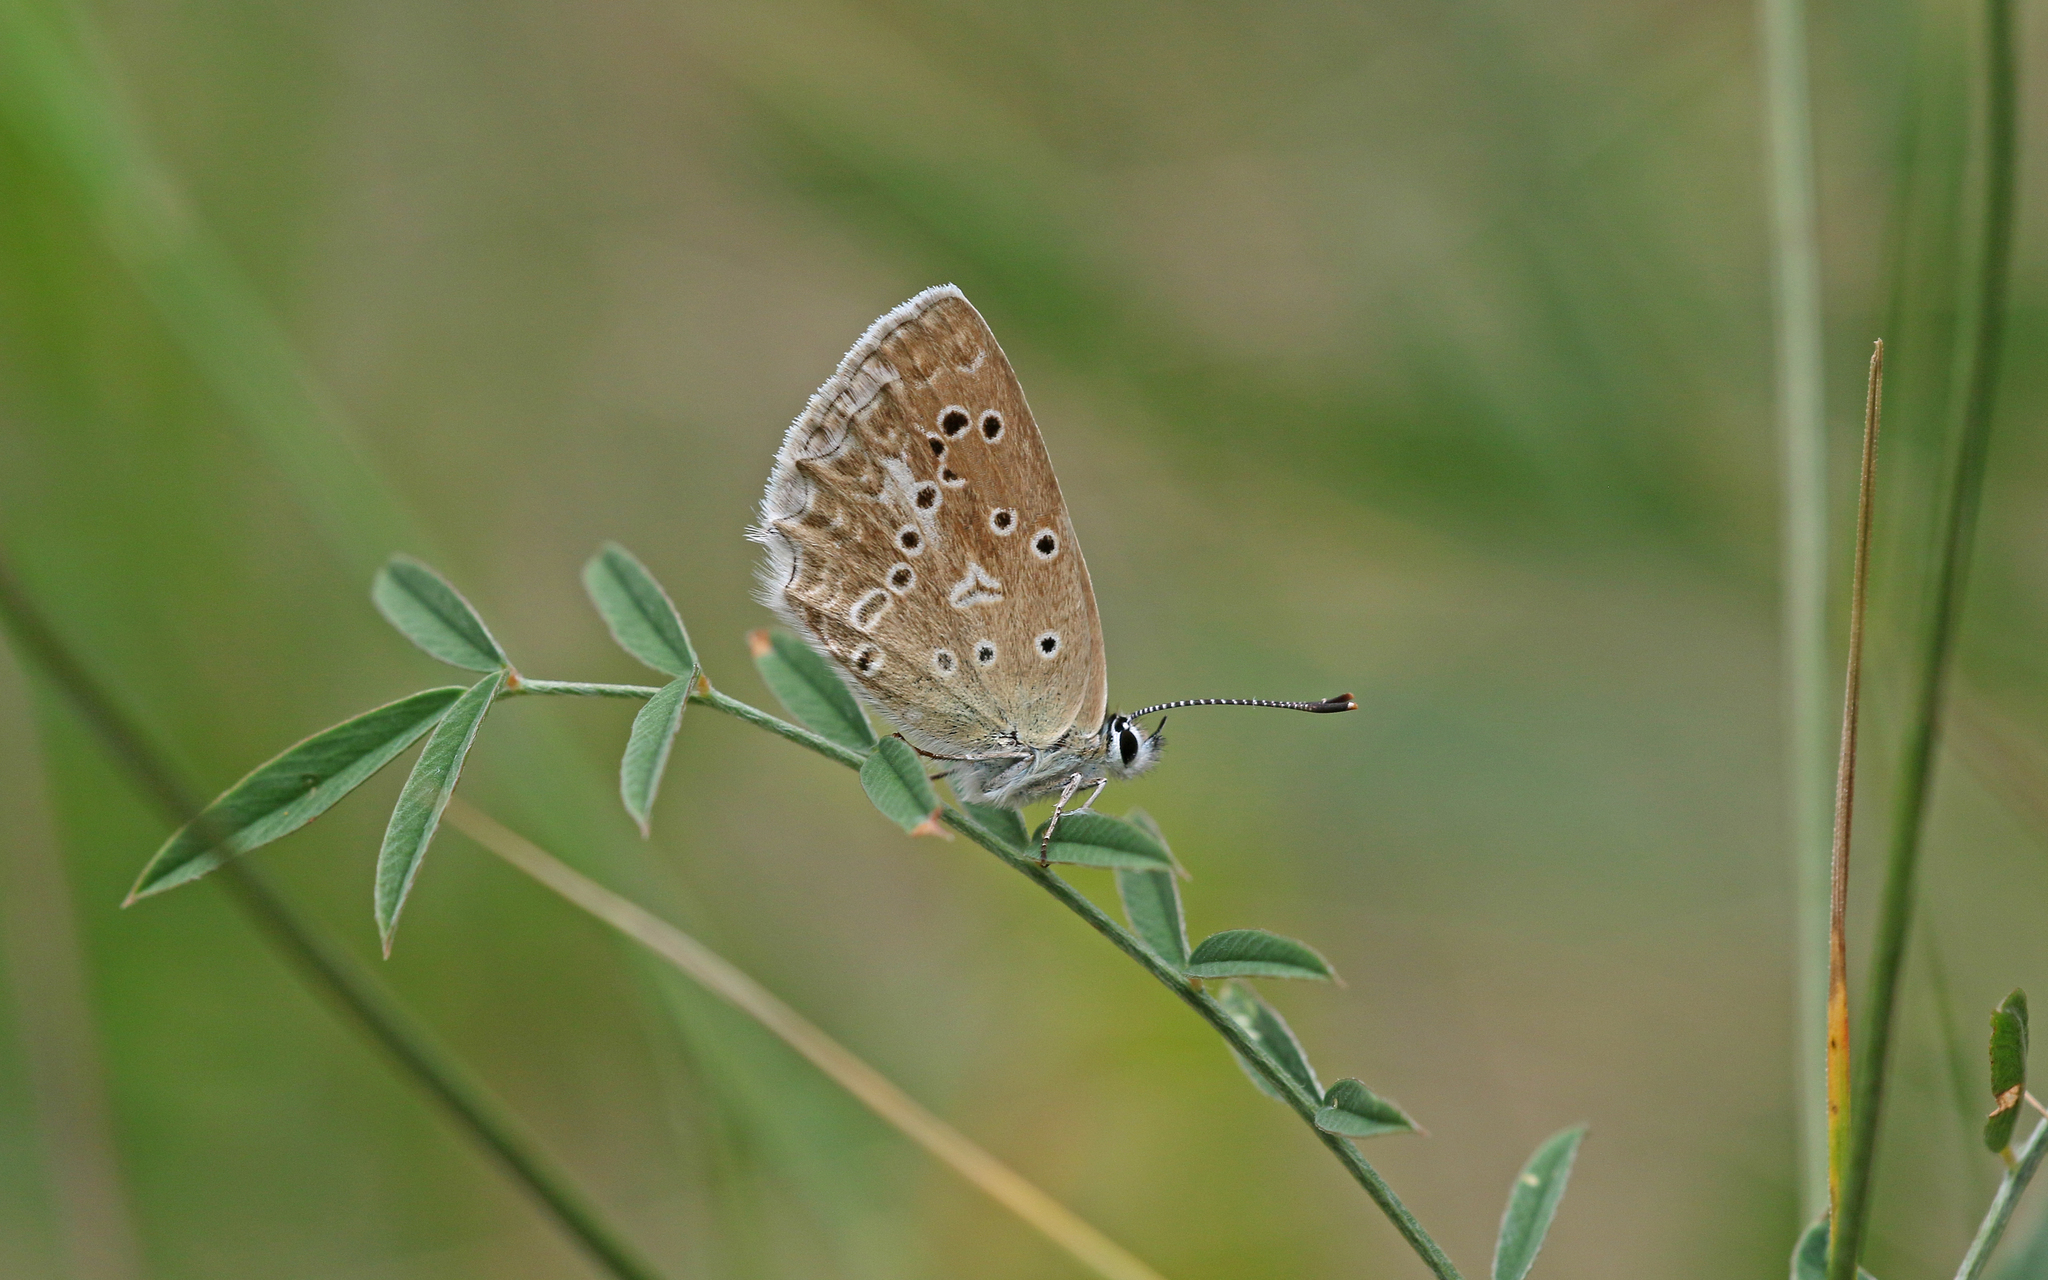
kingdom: Animalia
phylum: Arthropoda
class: Insecta
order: Lepidoptera
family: Lycaenidae
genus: Polyommatus
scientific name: Polyommatus daphnis
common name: Meleager's blue
